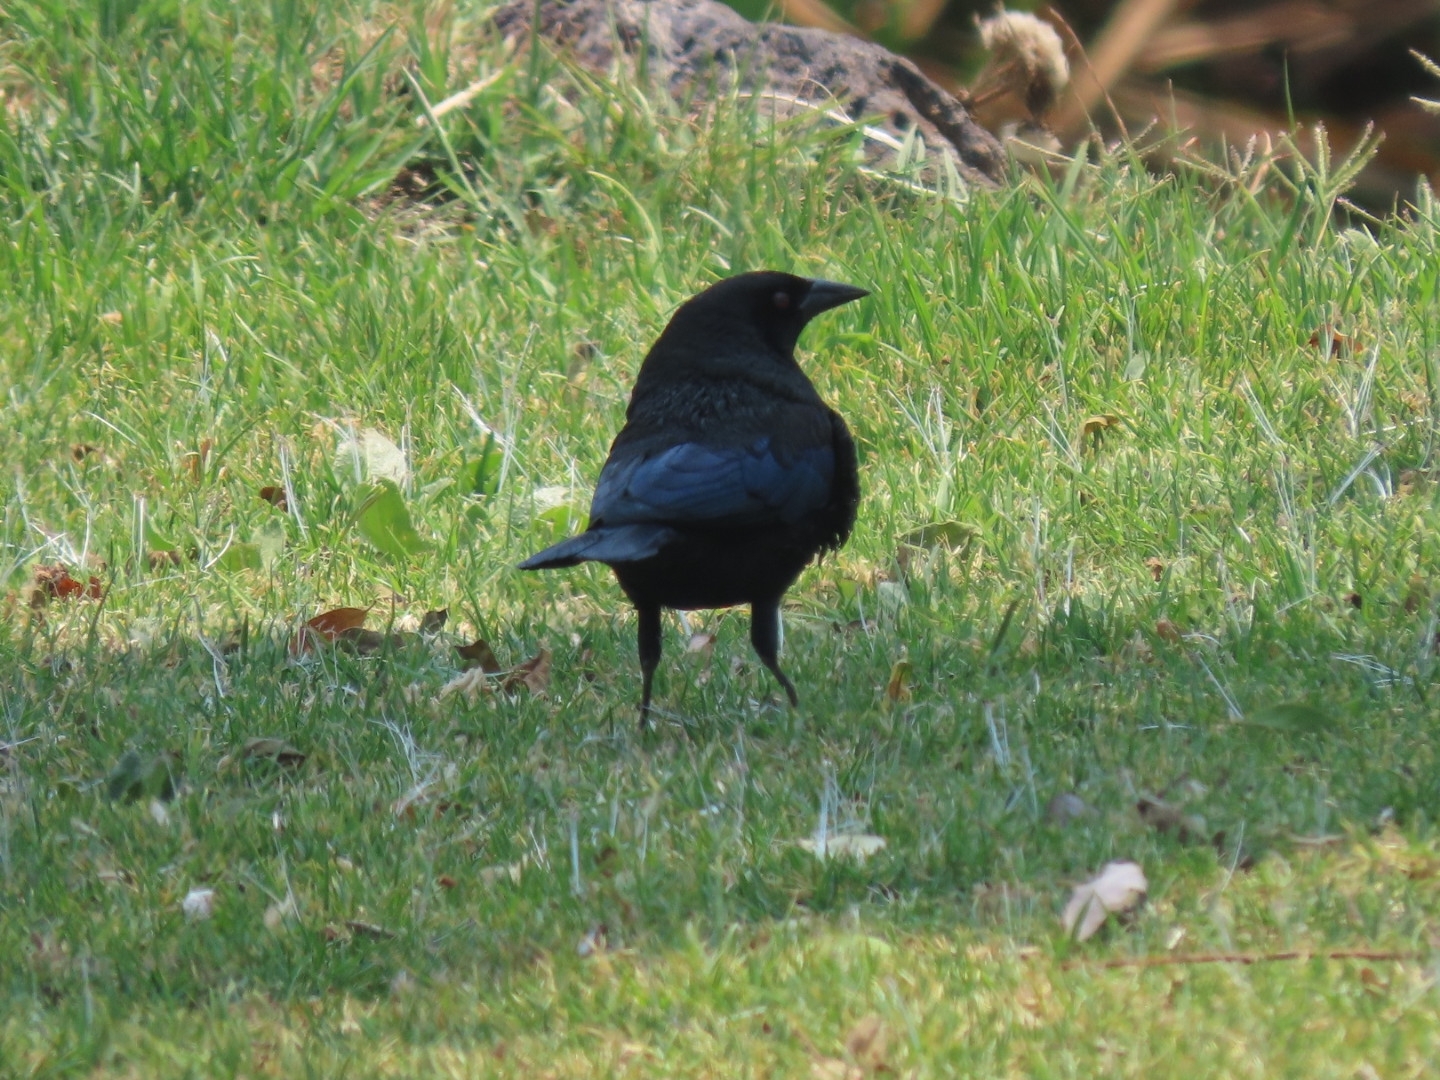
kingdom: Animalia
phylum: Chordata
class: Aves
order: Passeriformes
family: Icteridae
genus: Molothrus
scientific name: Molothrus aeneus
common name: Bronzed cowbird
